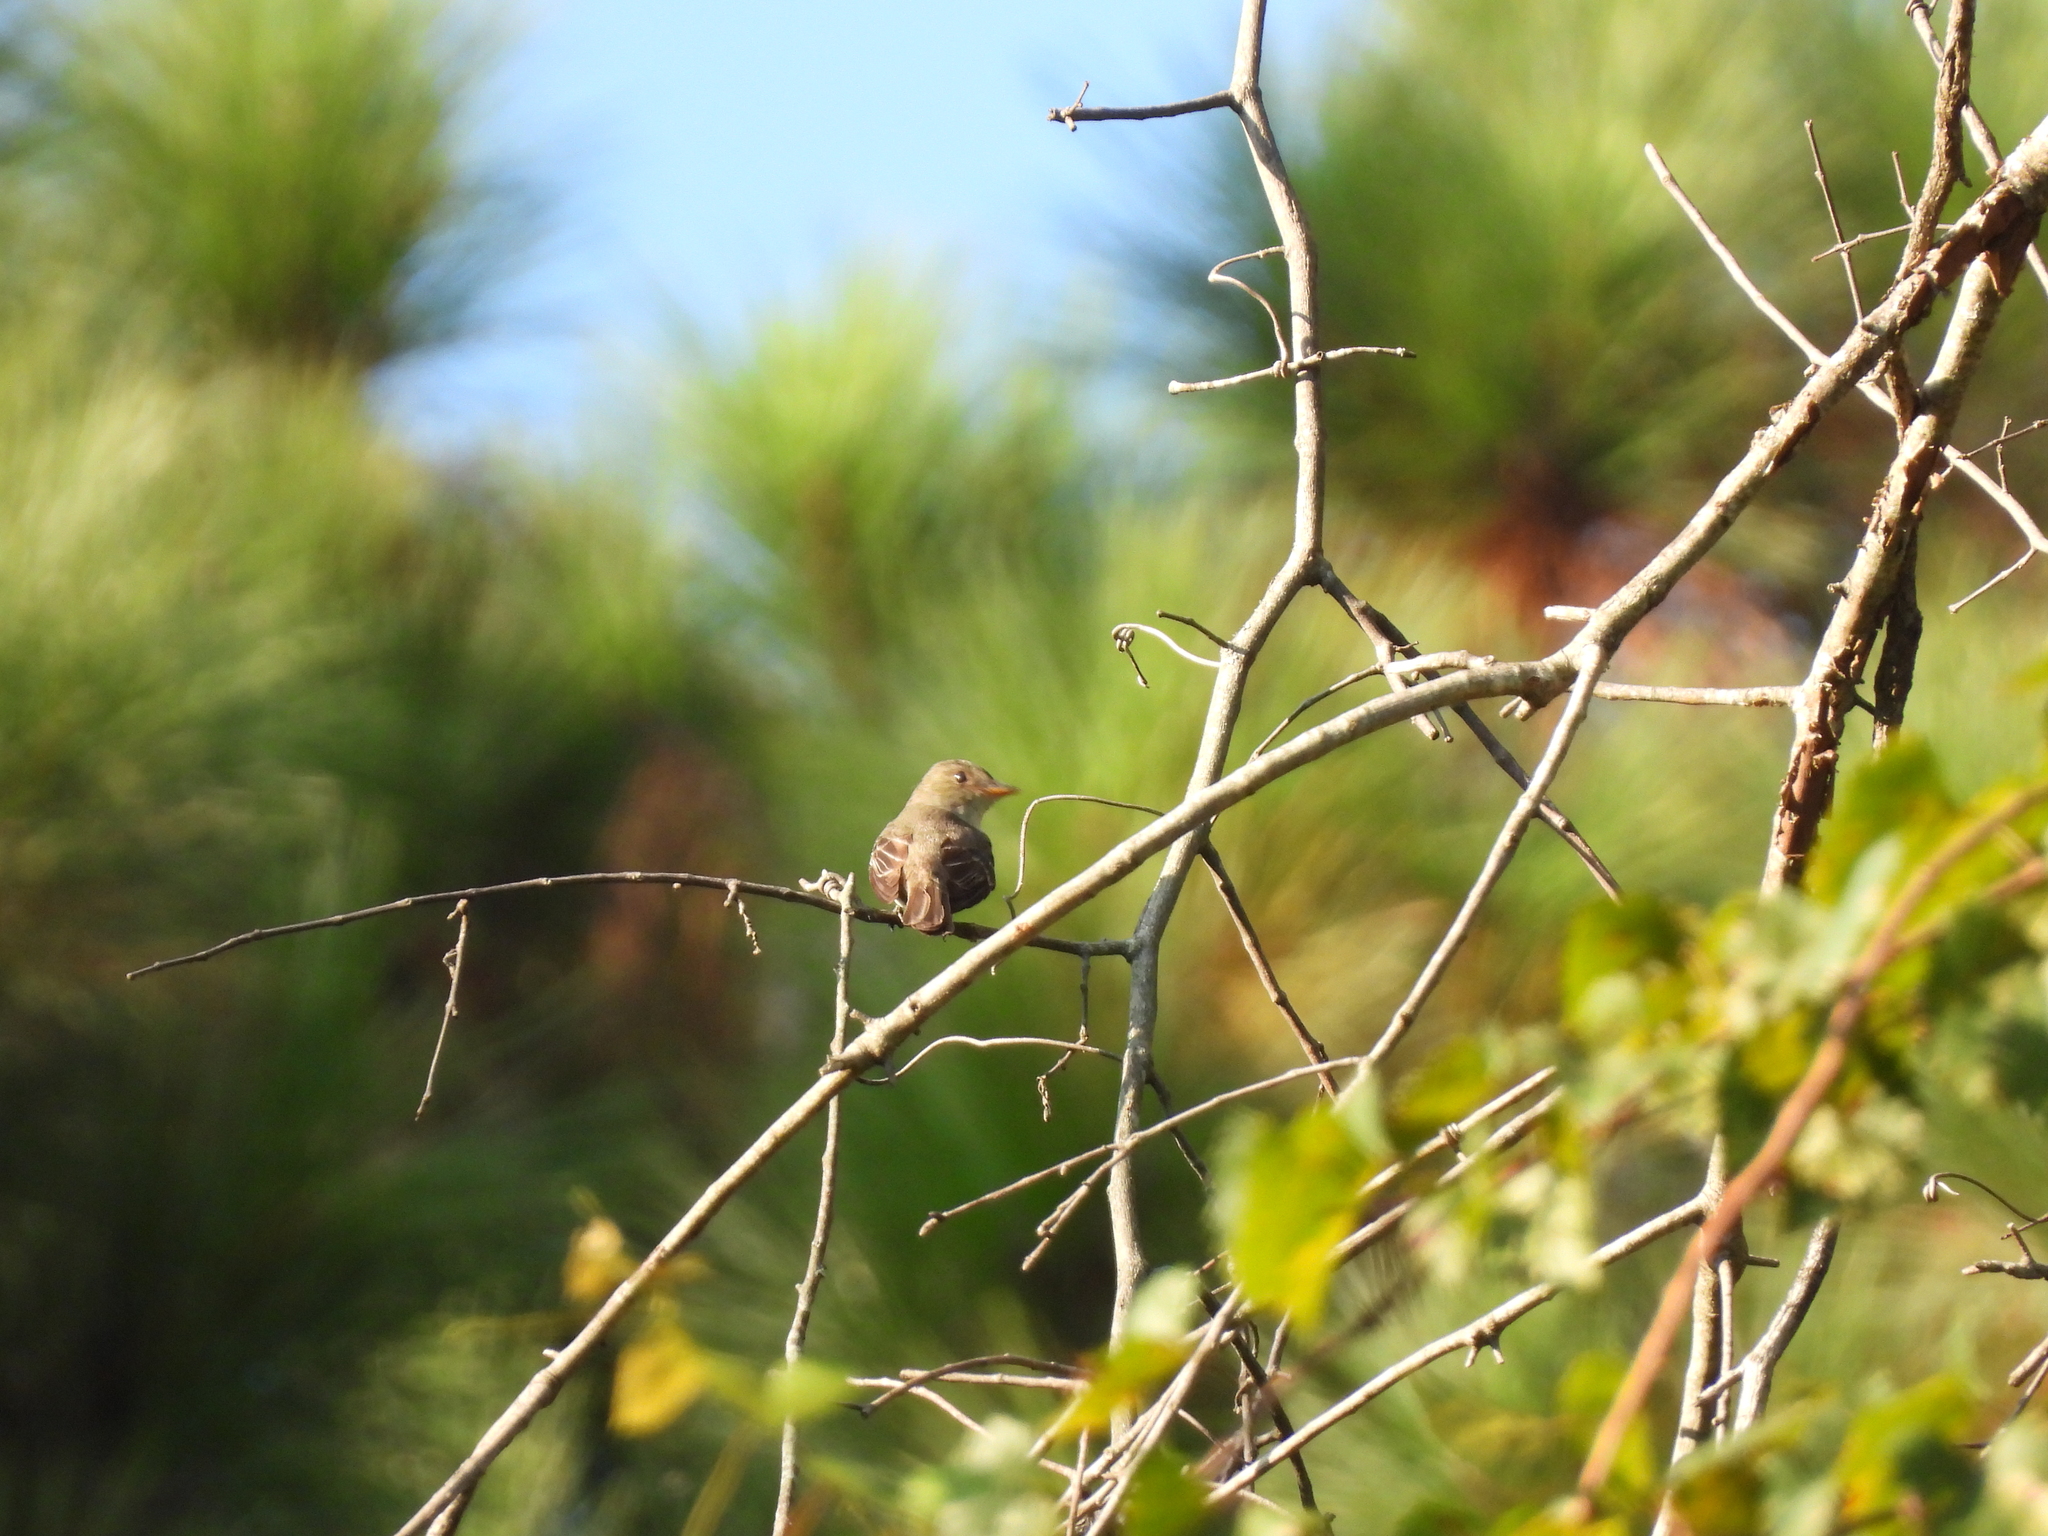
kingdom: Animalia
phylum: Chordata
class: Aves
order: Passeriformes
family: Tyrannidae
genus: Contopus
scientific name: Contopus virens
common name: Eastern wood-pewee
